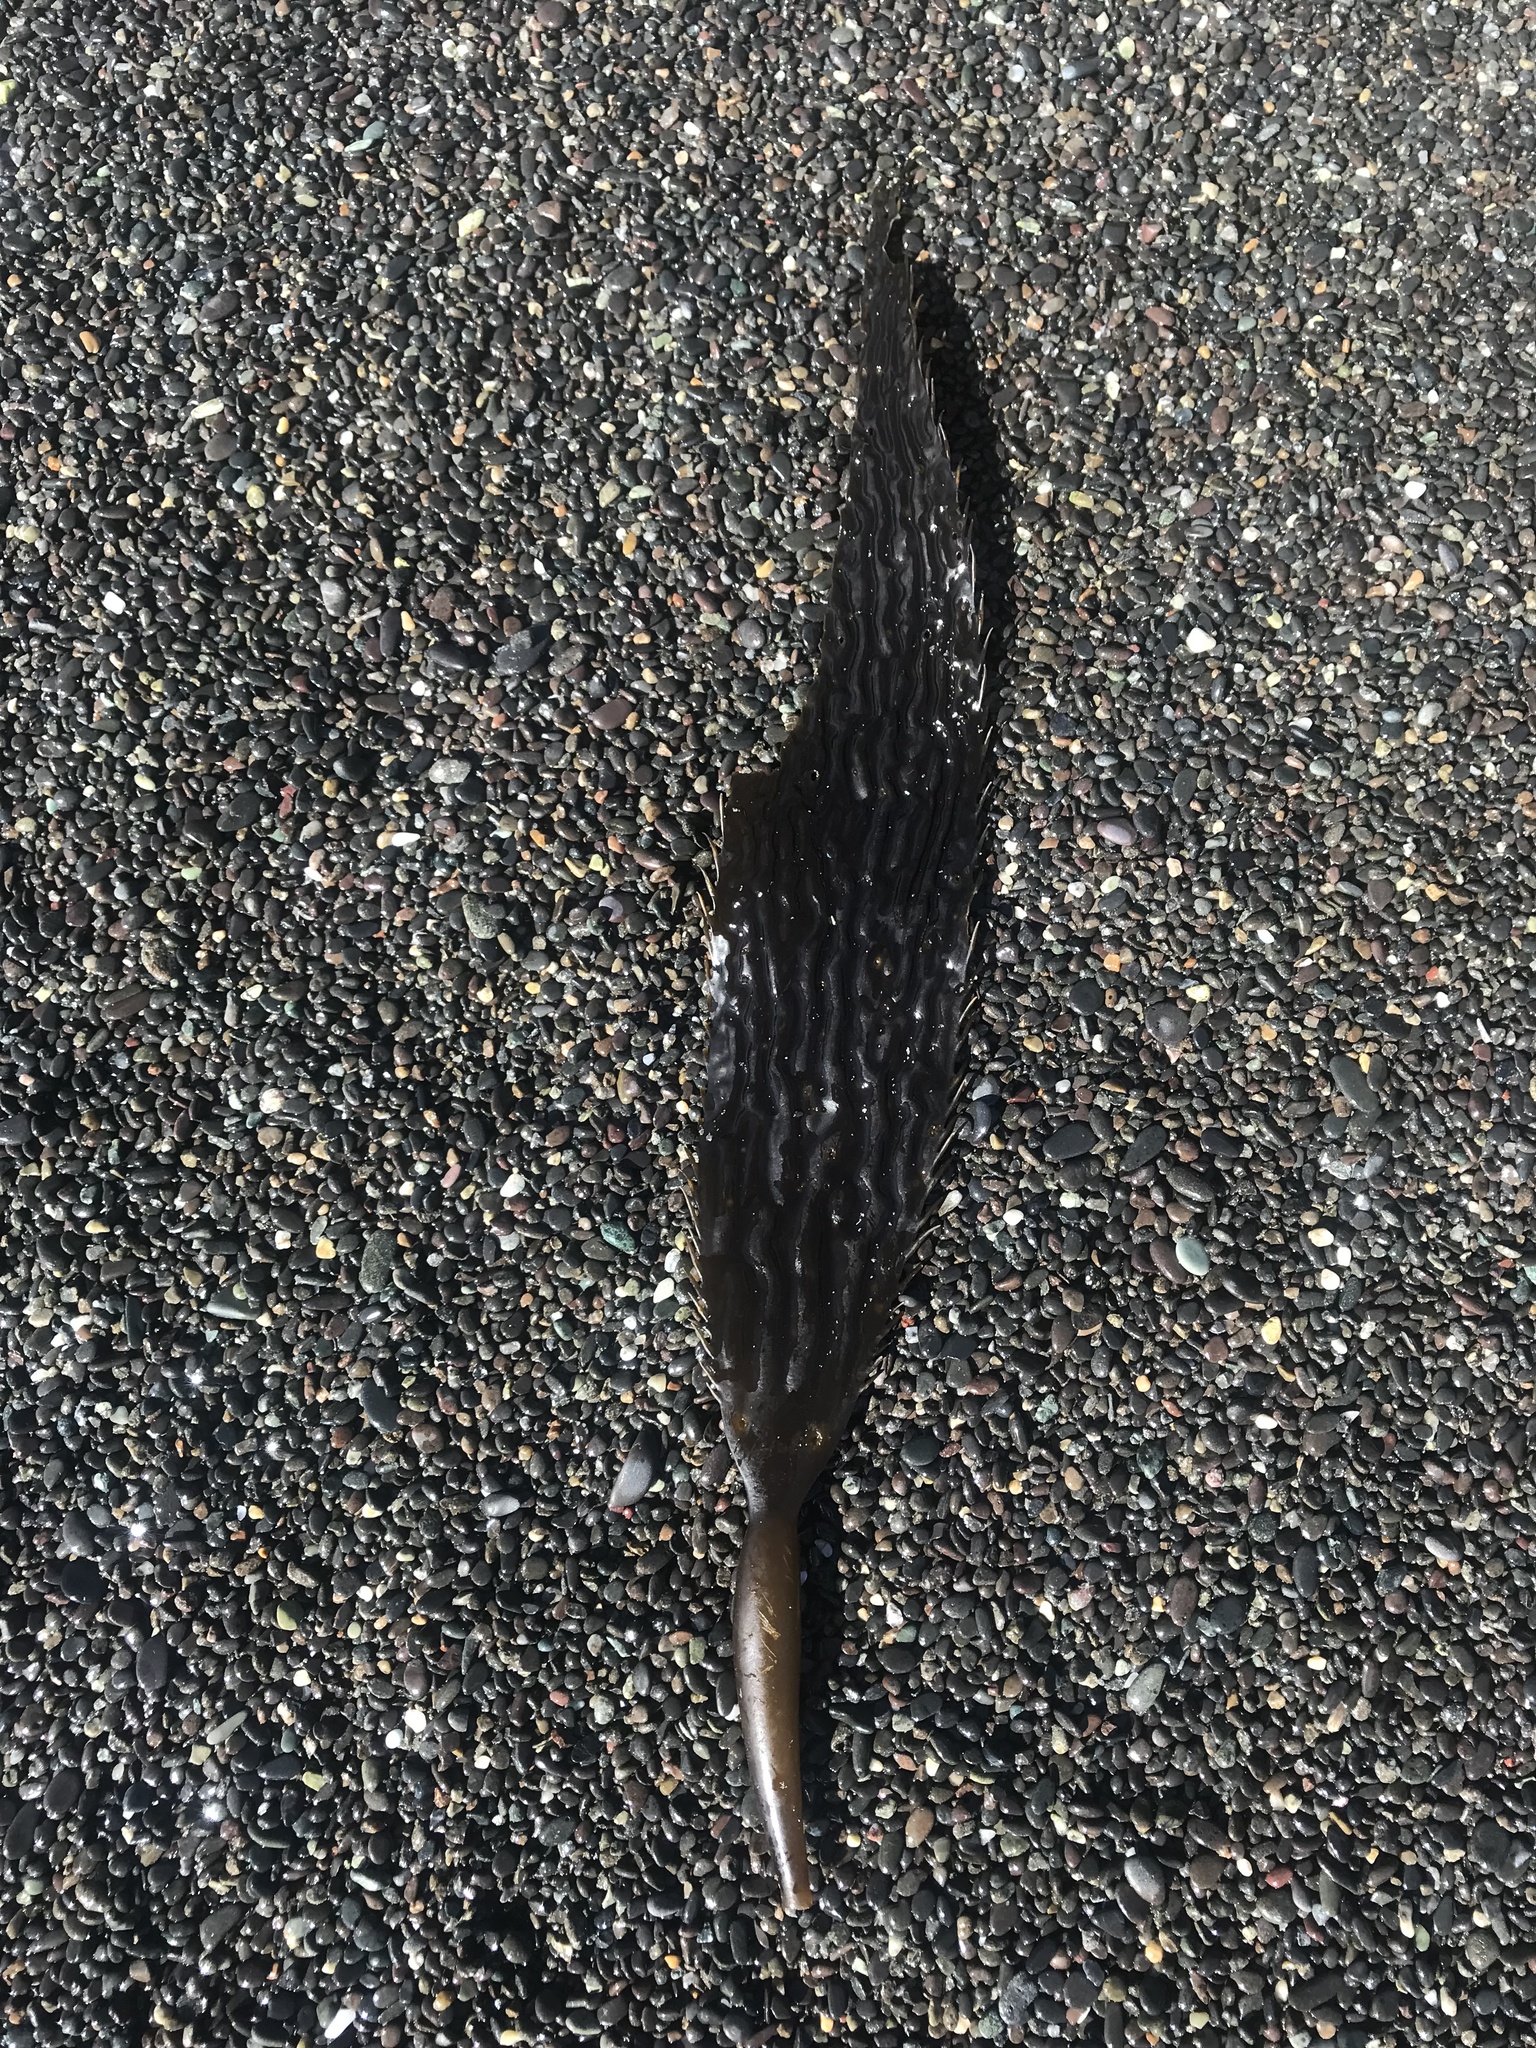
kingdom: Chromista
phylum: Ochrophyta
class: Phaeophyceae
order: Laminariales
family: Laminariaceae
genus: Macrocystis
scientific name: Macrocystis pyrifera
